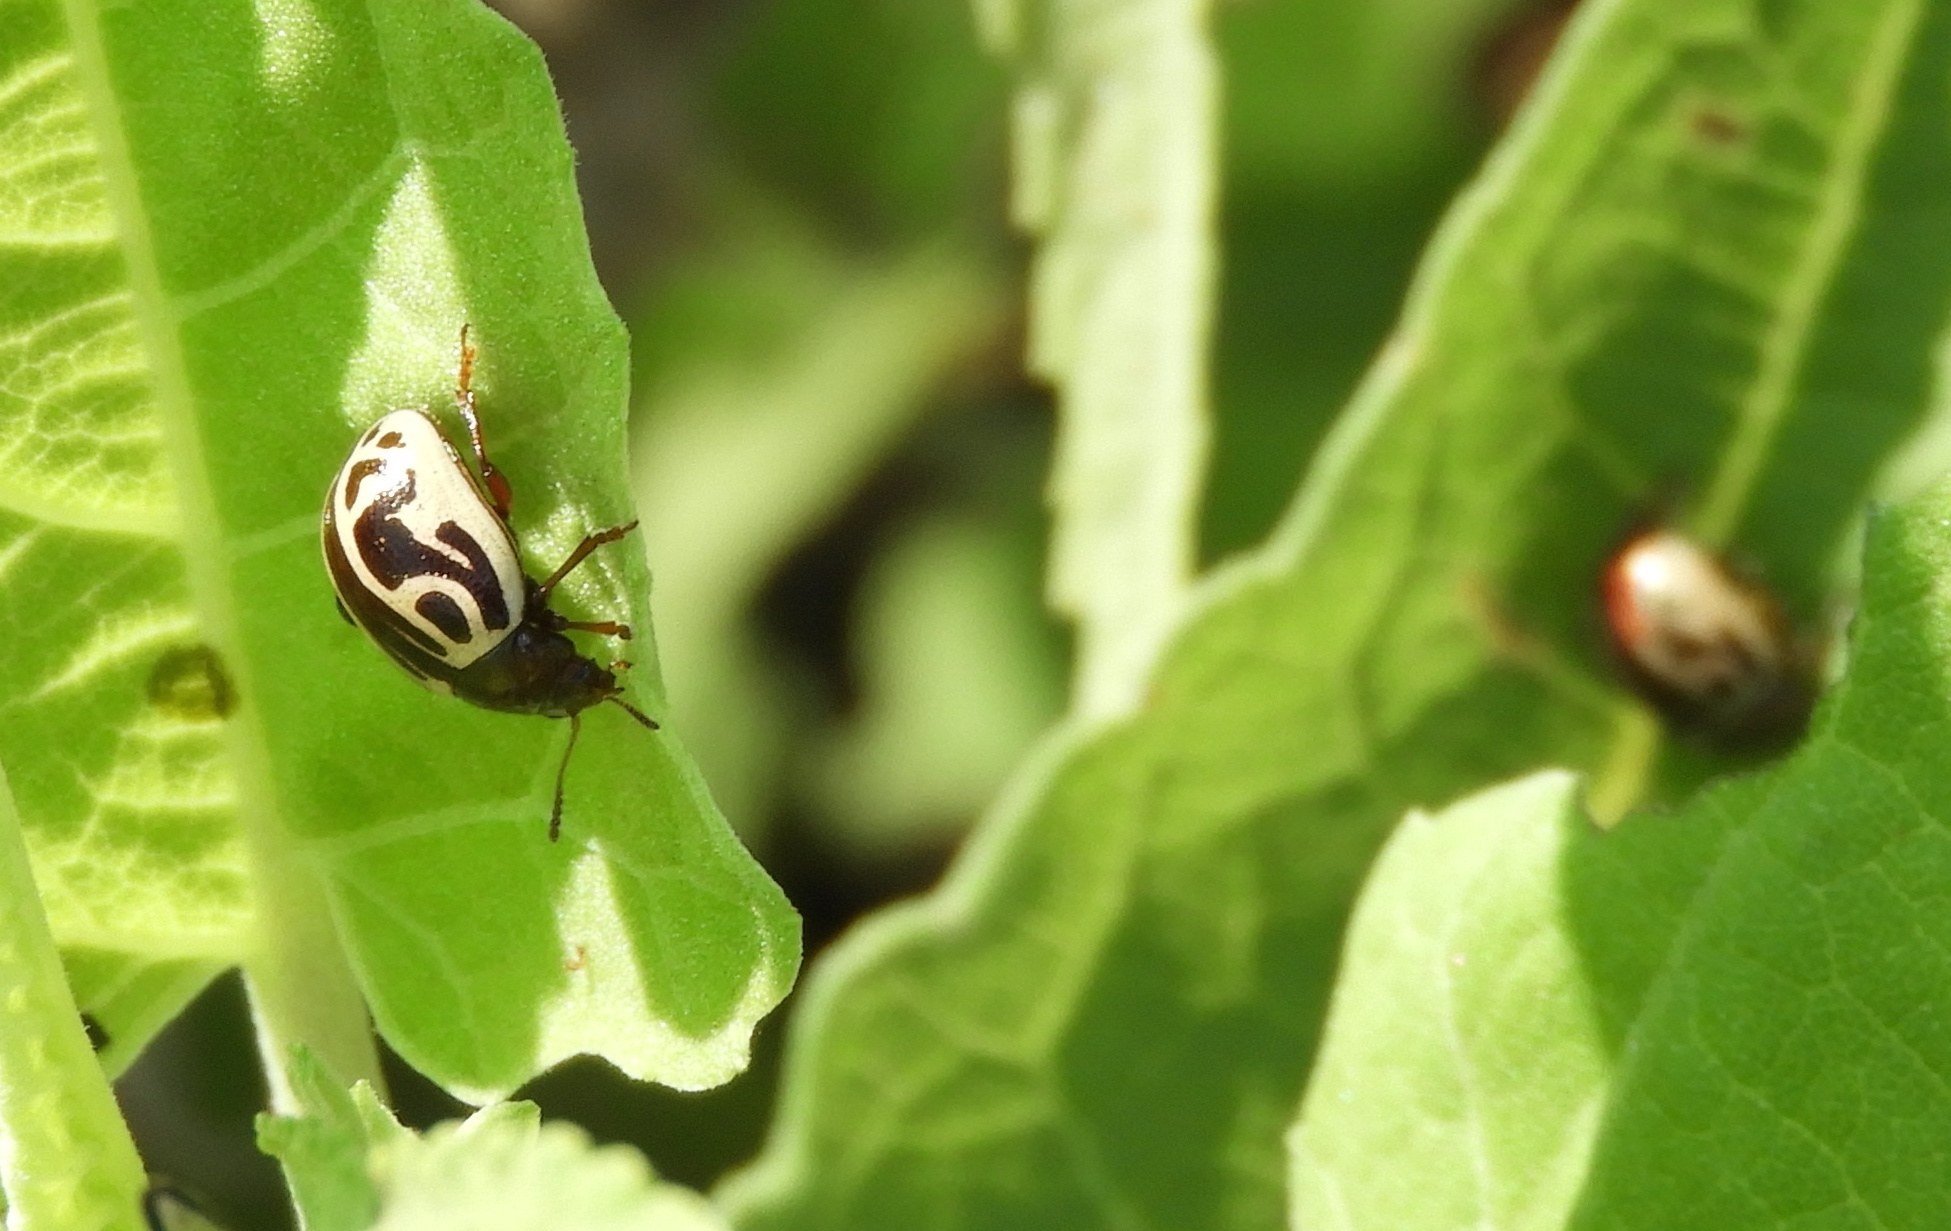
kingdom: Animalia
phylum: Arthropoda
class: Insecta
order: Coleoptera
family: Chrysomelidae
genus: Calligrapha
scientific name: Calligrapha
